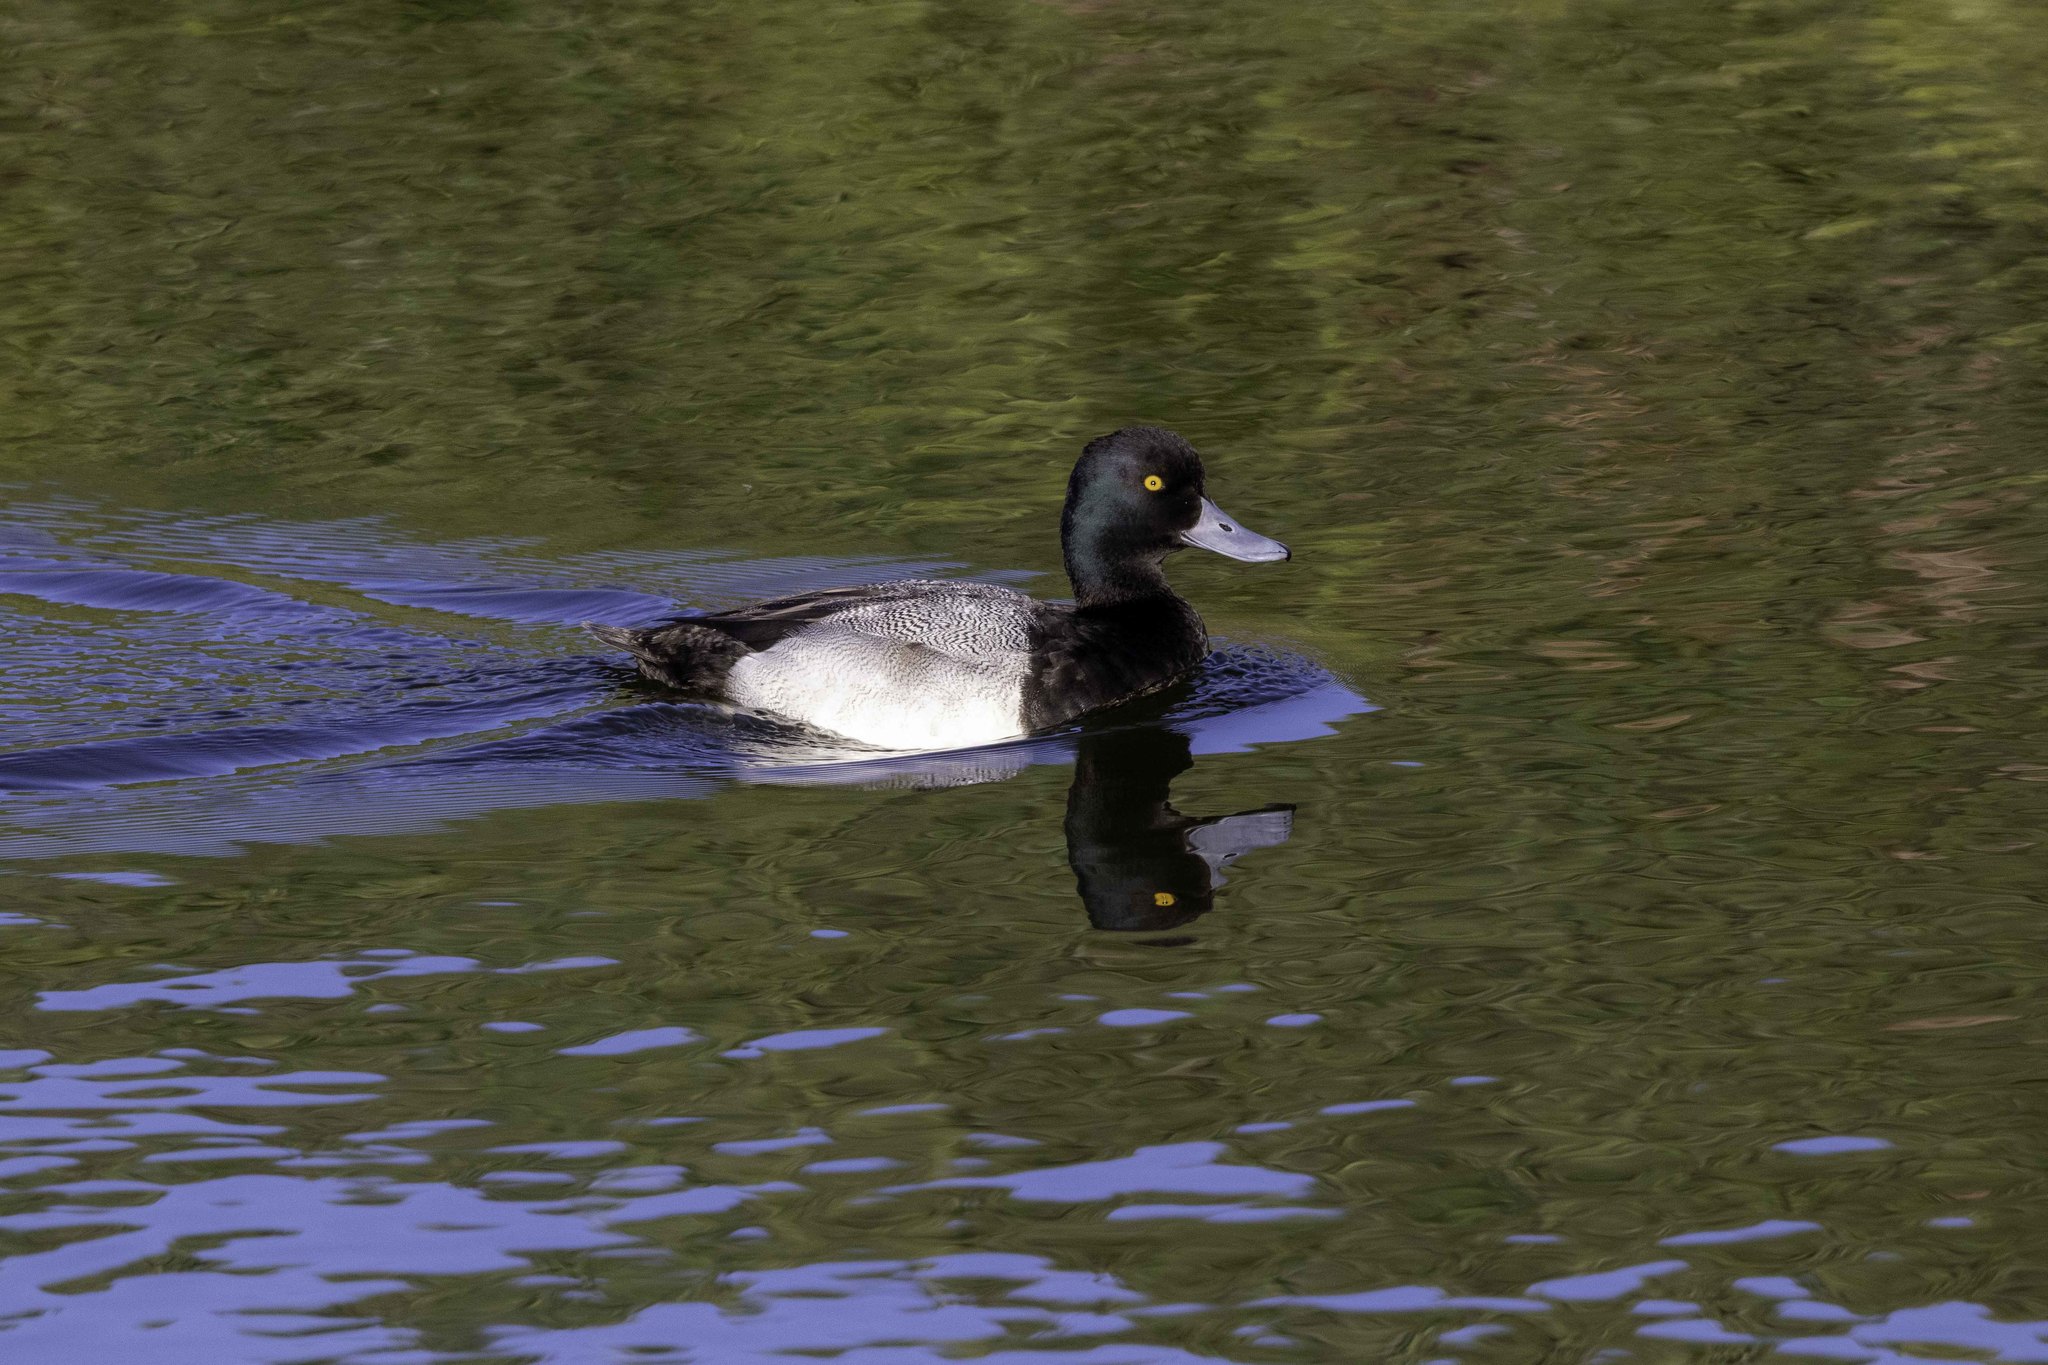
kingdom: Animalia
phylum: Chordata
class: Aves
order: Anseriformes
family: Anatidae
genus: Aythya
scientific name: Aythya affinis
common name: Lesser scaup
